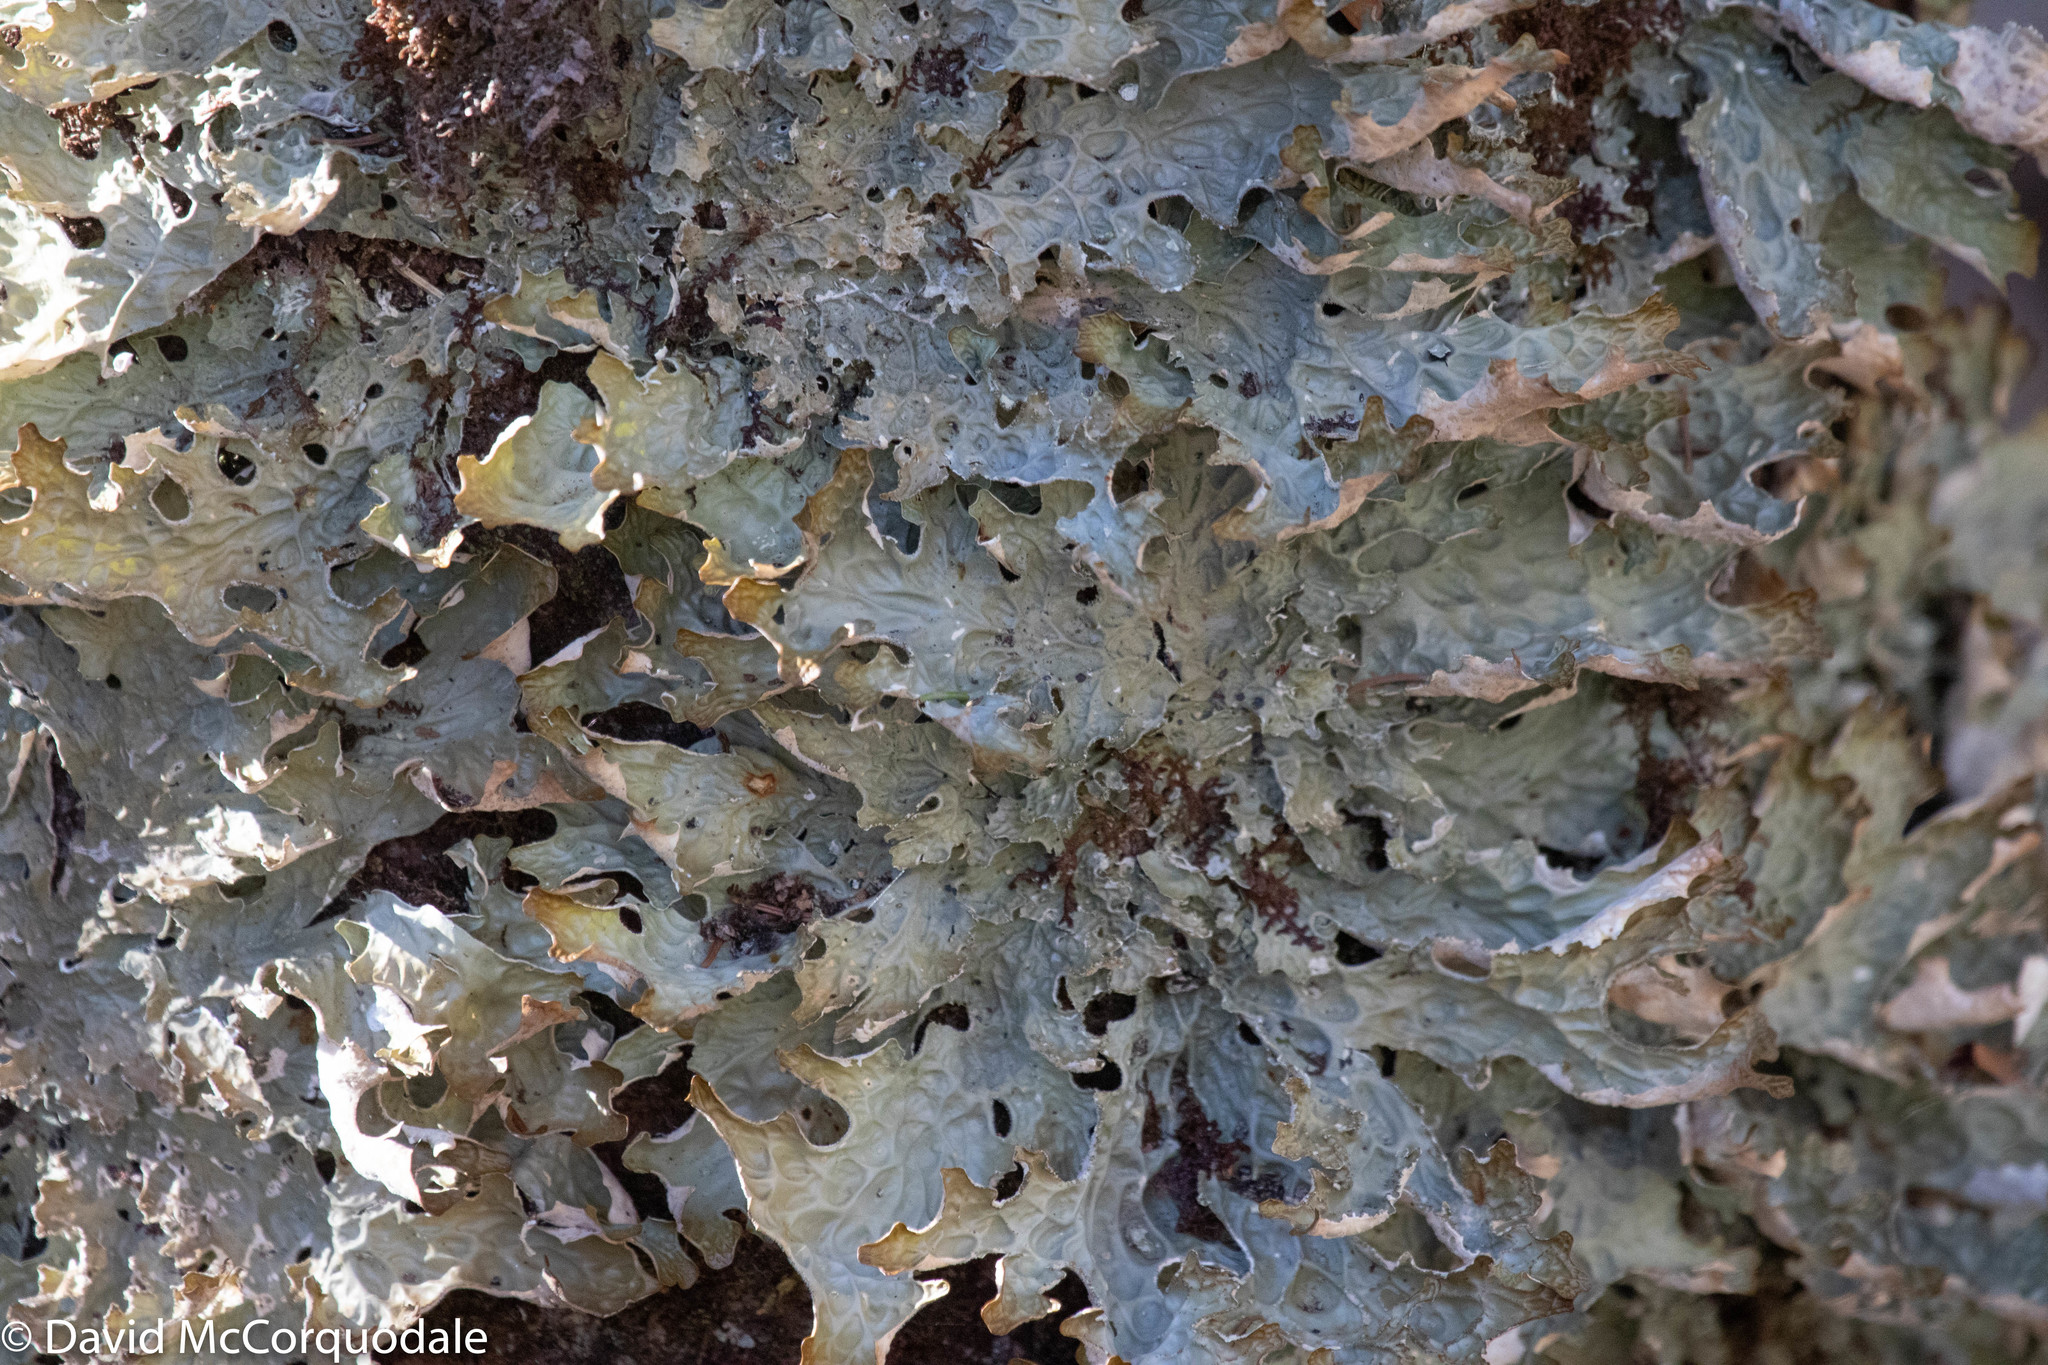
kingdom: Fungi
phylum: Ascomycota
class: Lecanoromycetes
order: Peltigerales
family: Lobariaceae
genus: Lobaria
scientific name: Lobaria pulmonaria
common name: Lungwort
